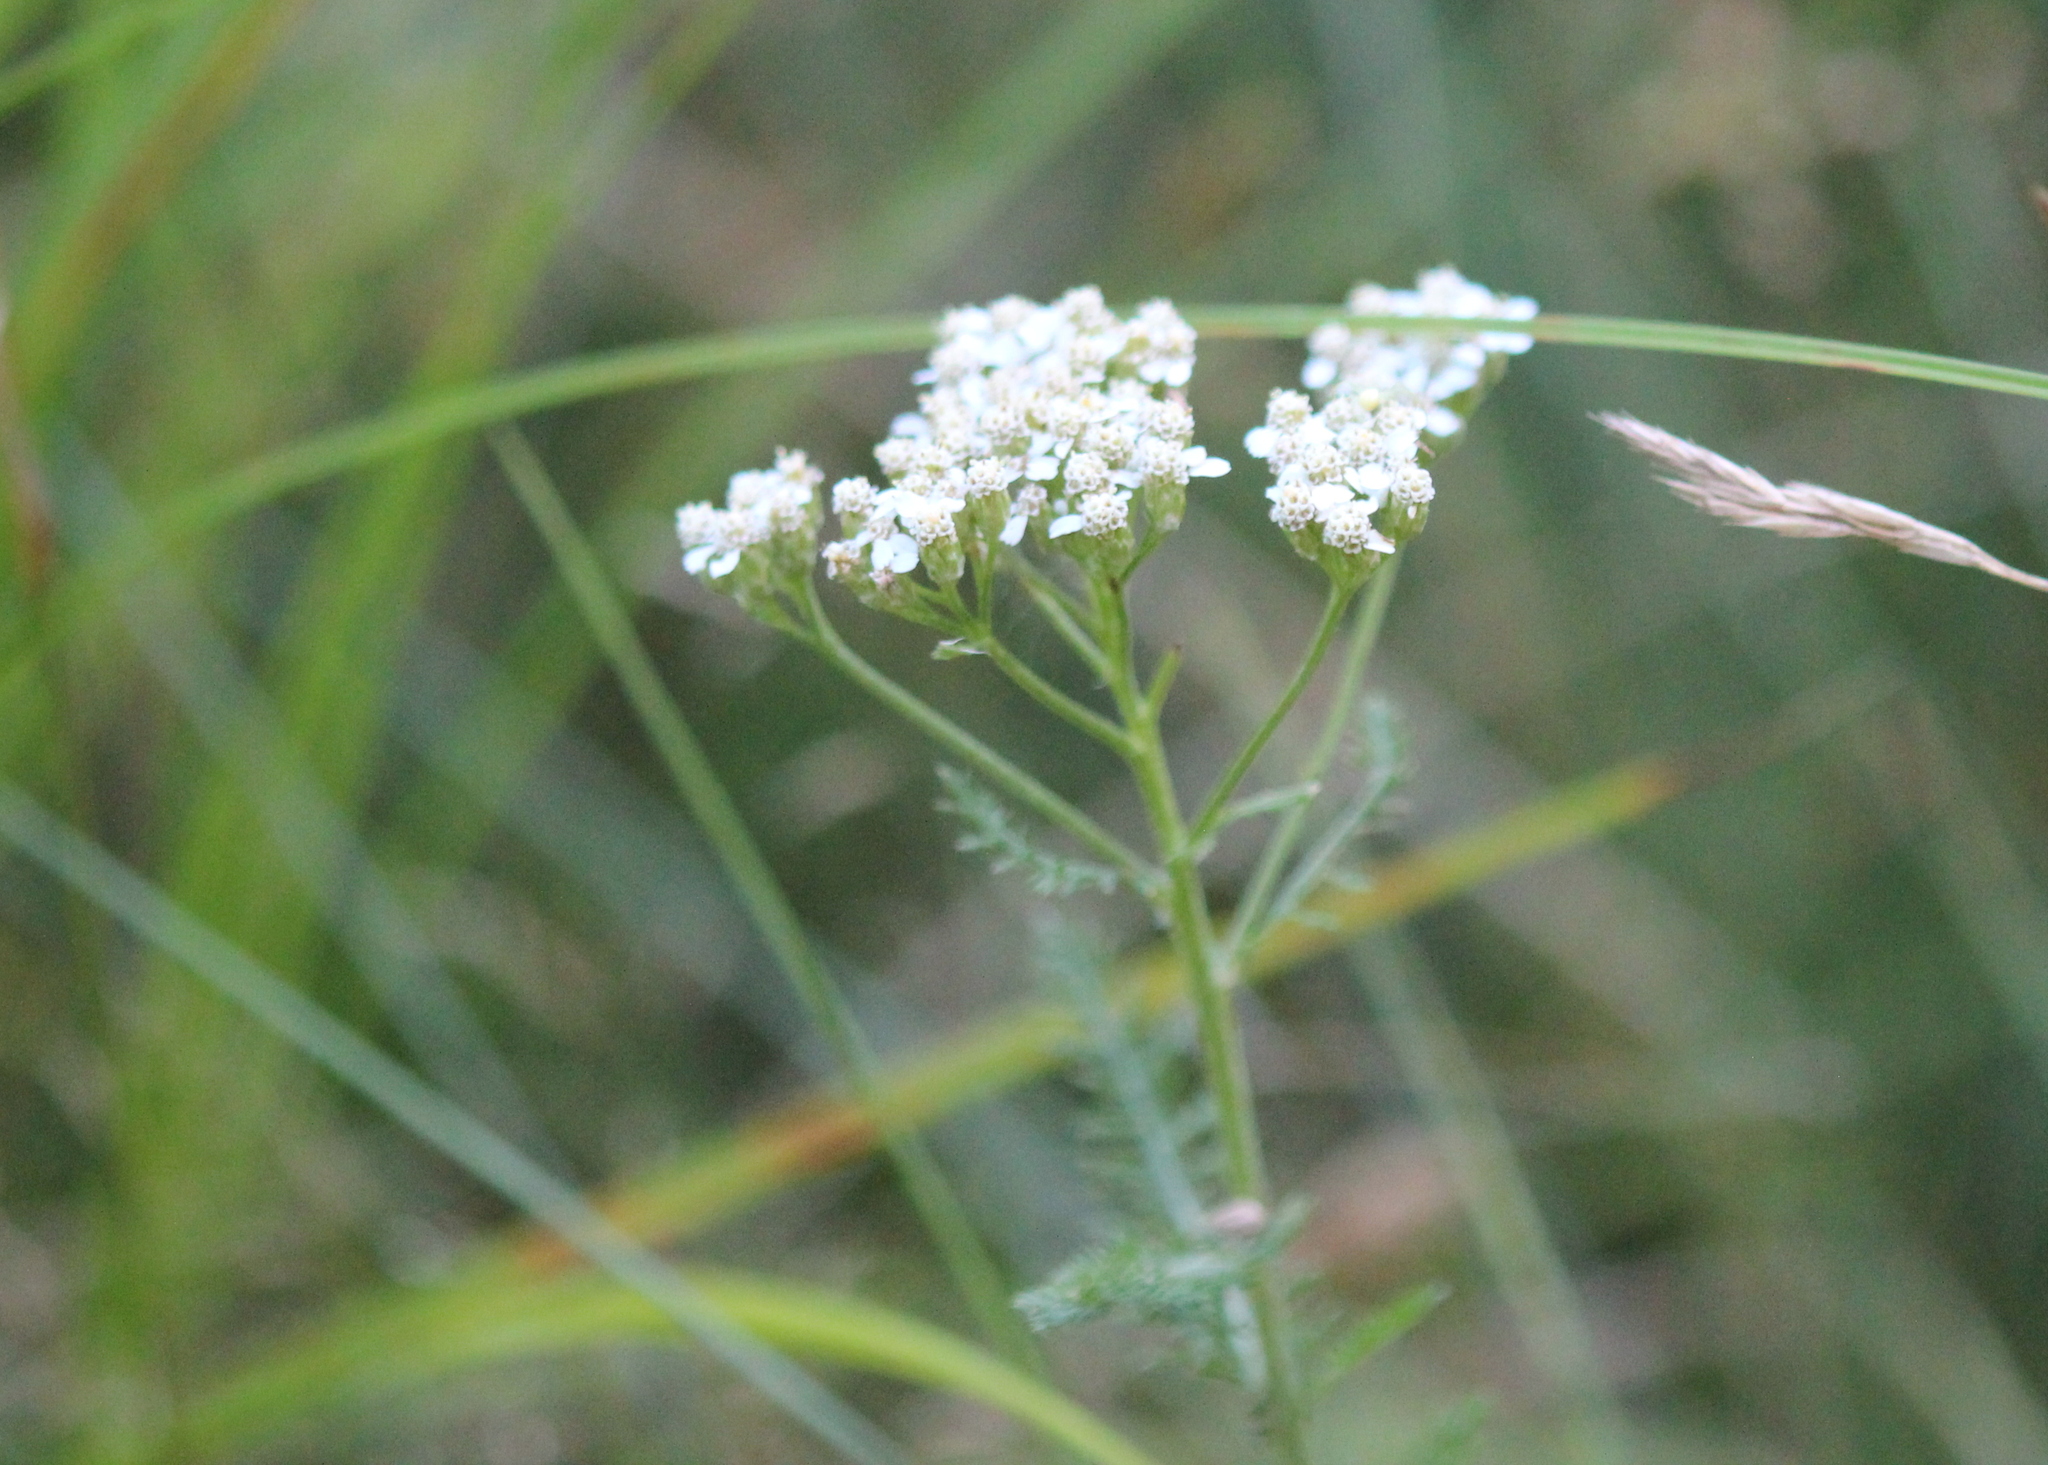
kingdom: Plantae
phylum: Tracheophyta
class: Magnoliopsida
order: Asterales
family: Asteraceae
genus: Achillea
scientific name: Achillea millefolium
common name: Yarrow
